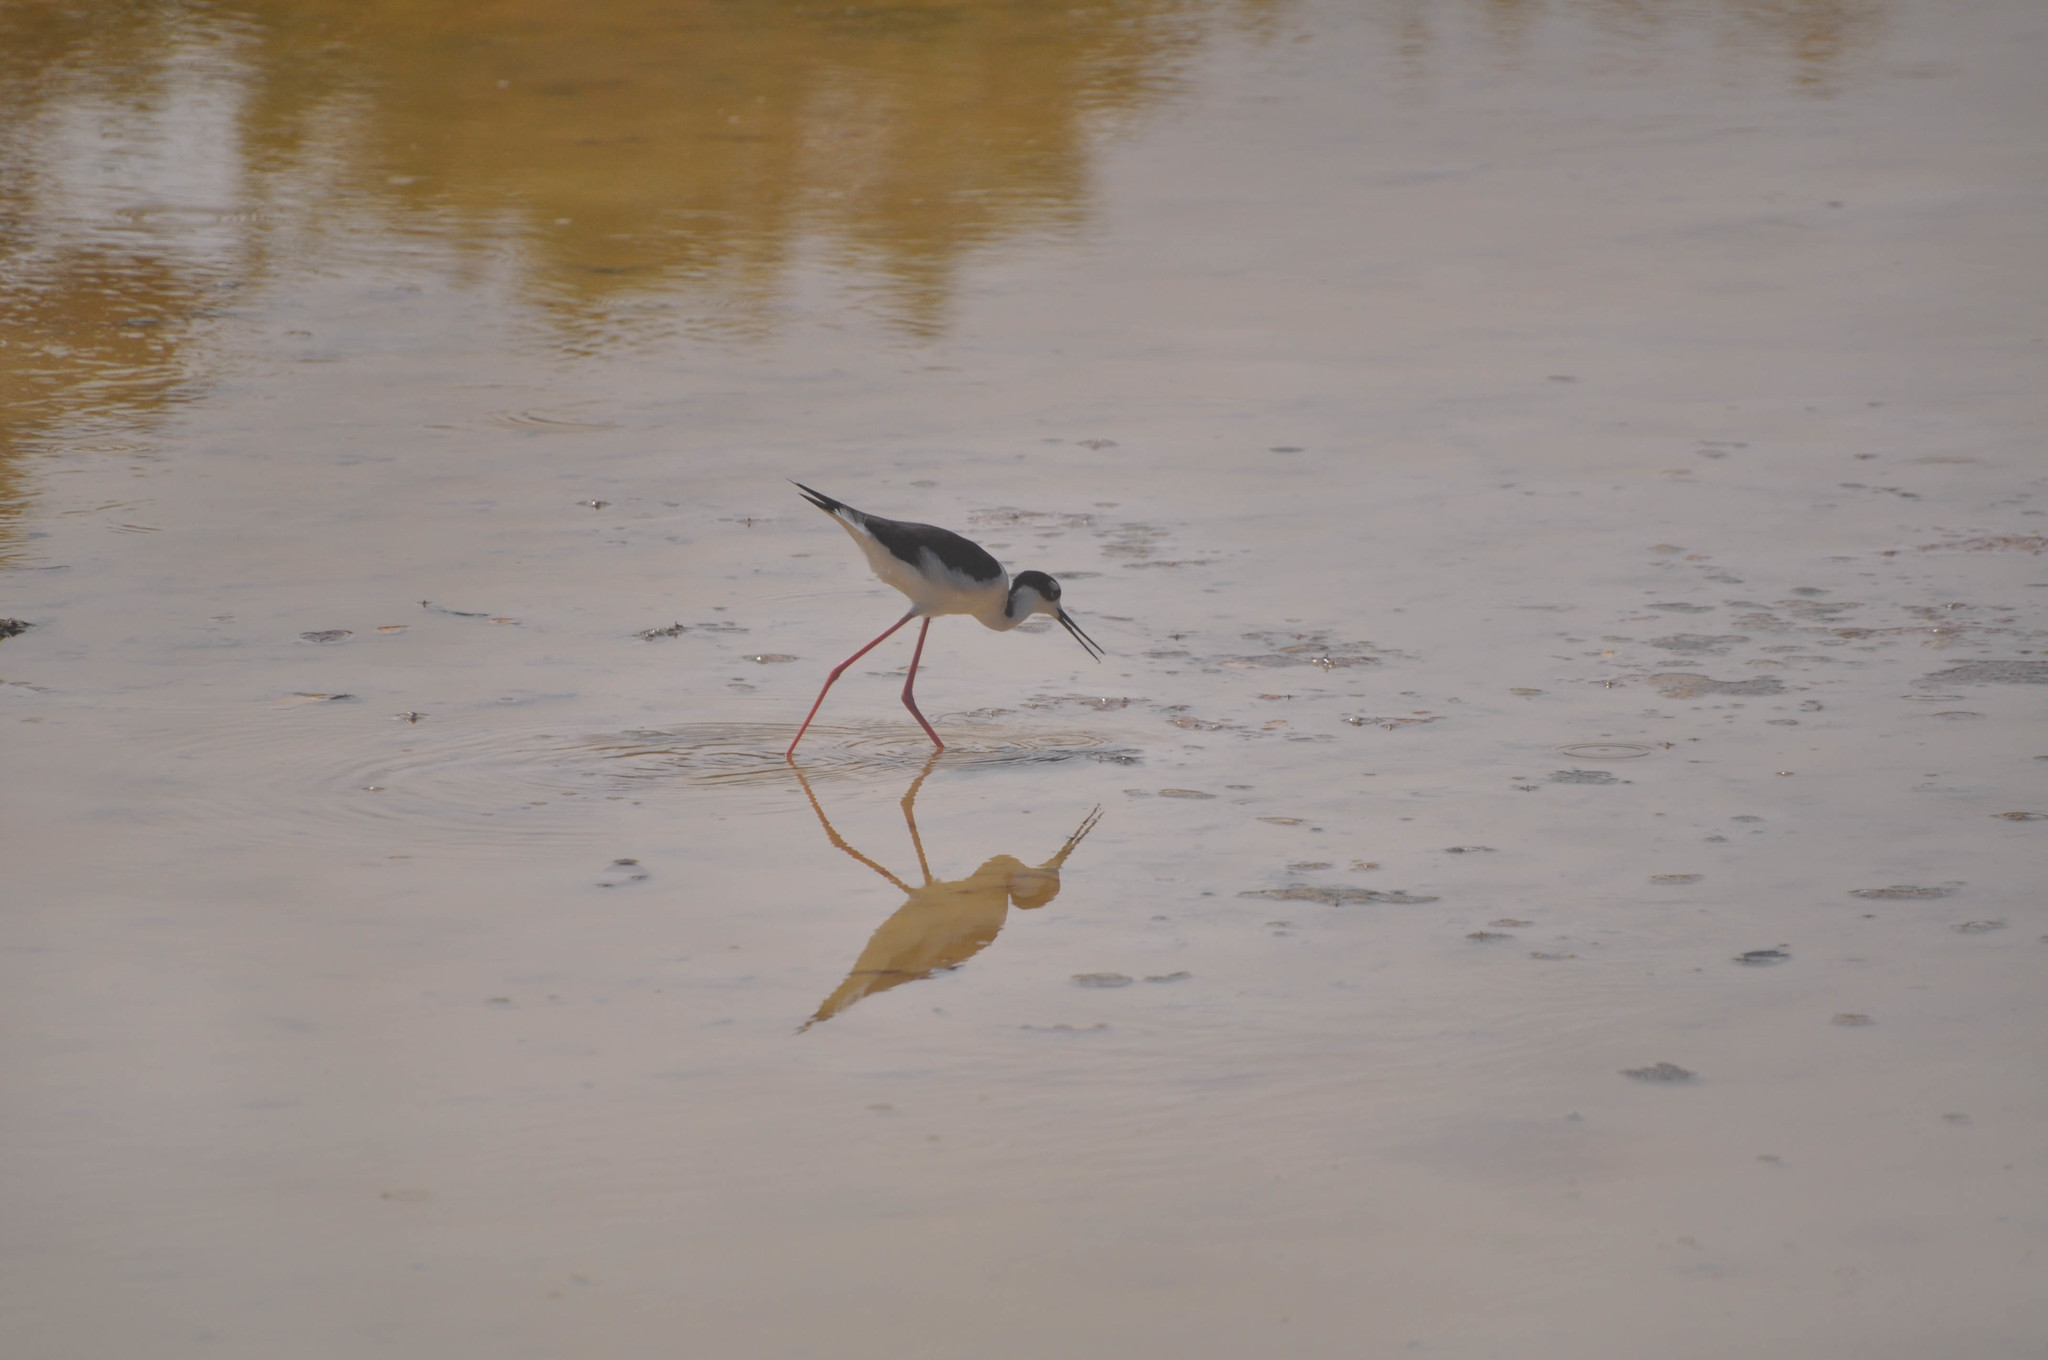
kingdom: Animalia
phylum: Chordata
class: Aves
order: Charadriiformes
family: Recurvirostridae
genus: Himantopus
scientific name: Himantopus mexicanus
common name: Black-necked stilt
